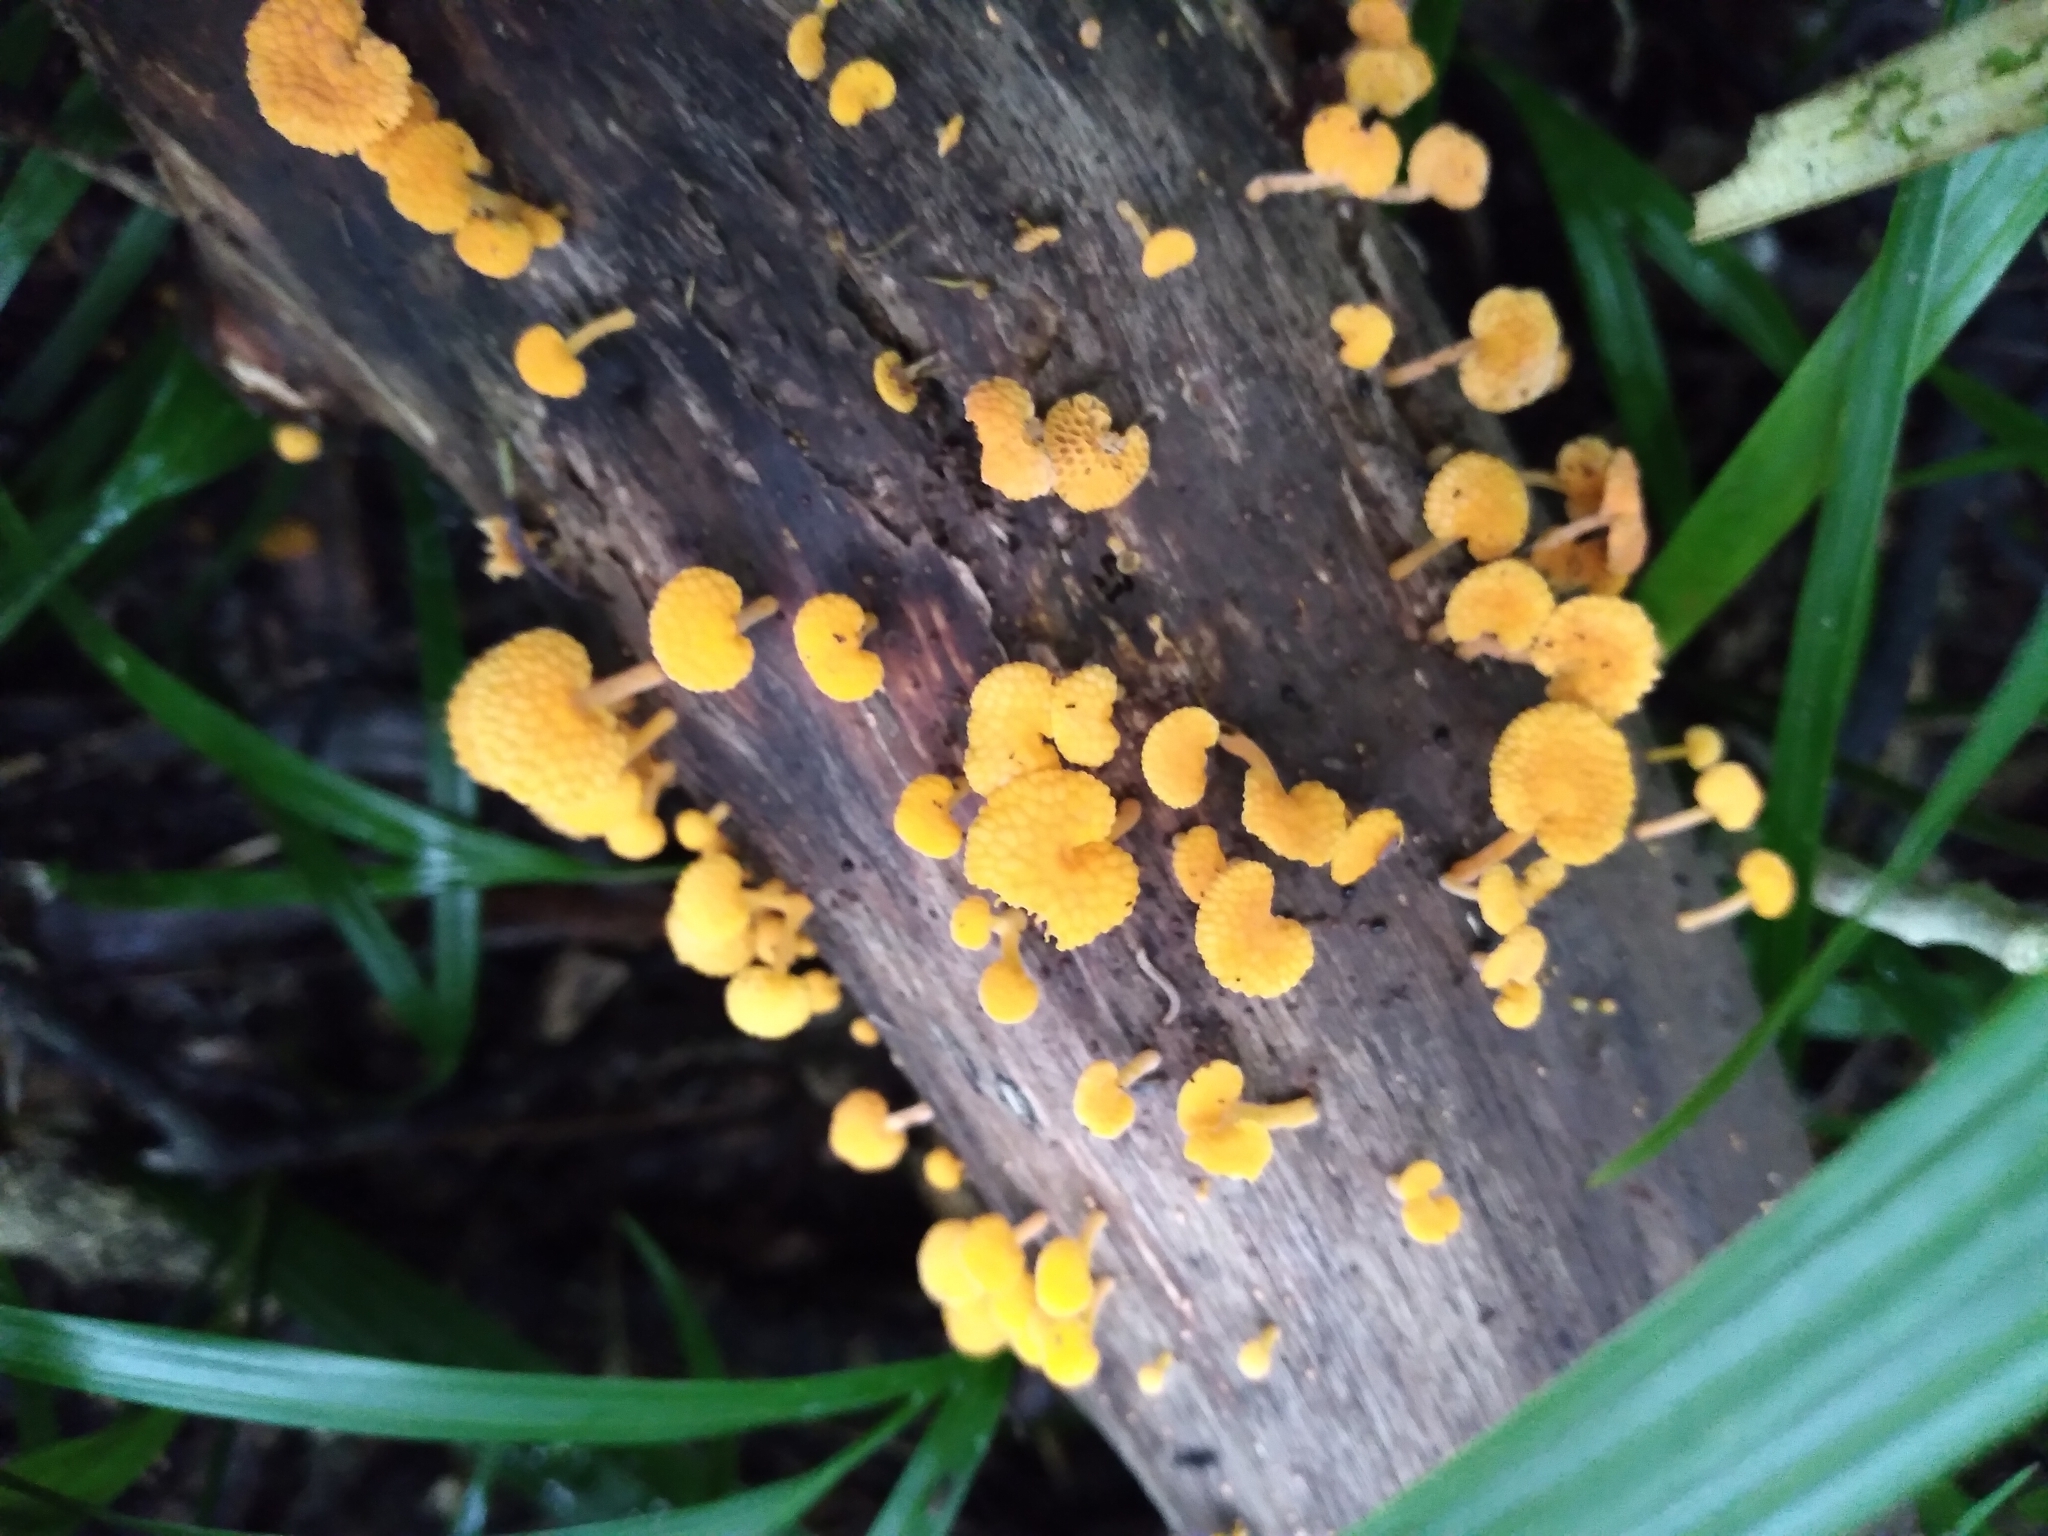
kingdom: Fungi
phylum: Basidiomycota
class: Agaricomycetes
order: Agaricales
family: Mycenaceae
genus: Favolaschia
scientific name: Favolaschia claudopus
